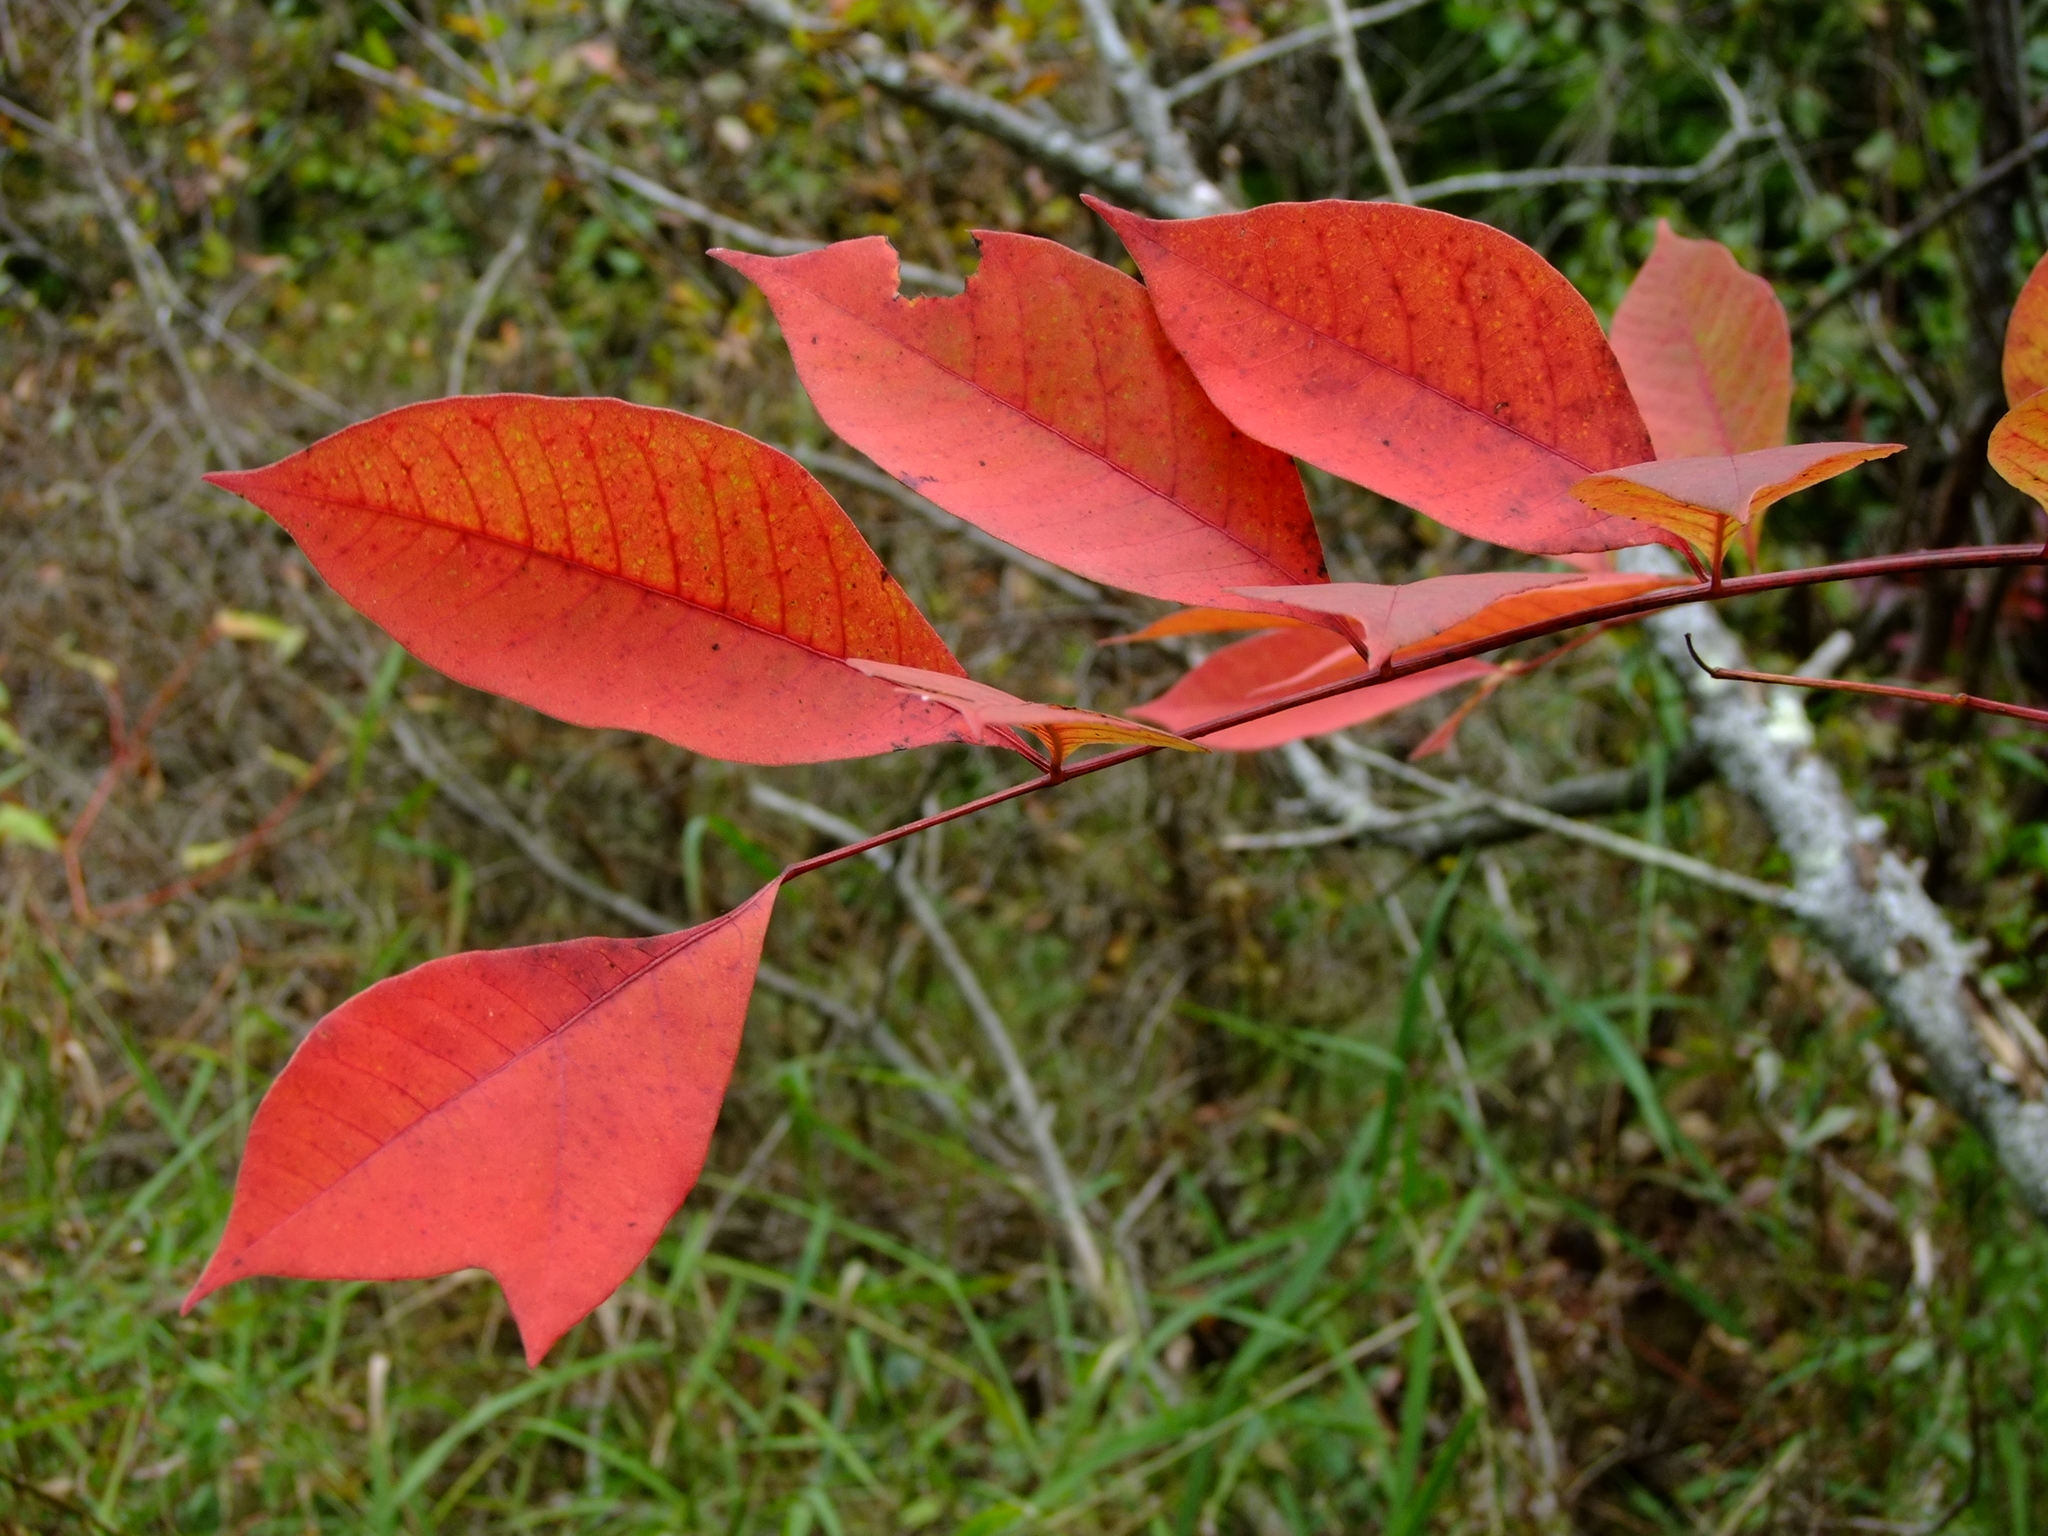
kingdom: Plantae
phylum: Tracheophyta
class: Magnoliopsida
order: Sapindales
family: Anacardiaceae
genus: Toxicodendron
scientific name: Toxicodendron vernix
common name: Poison sumac
